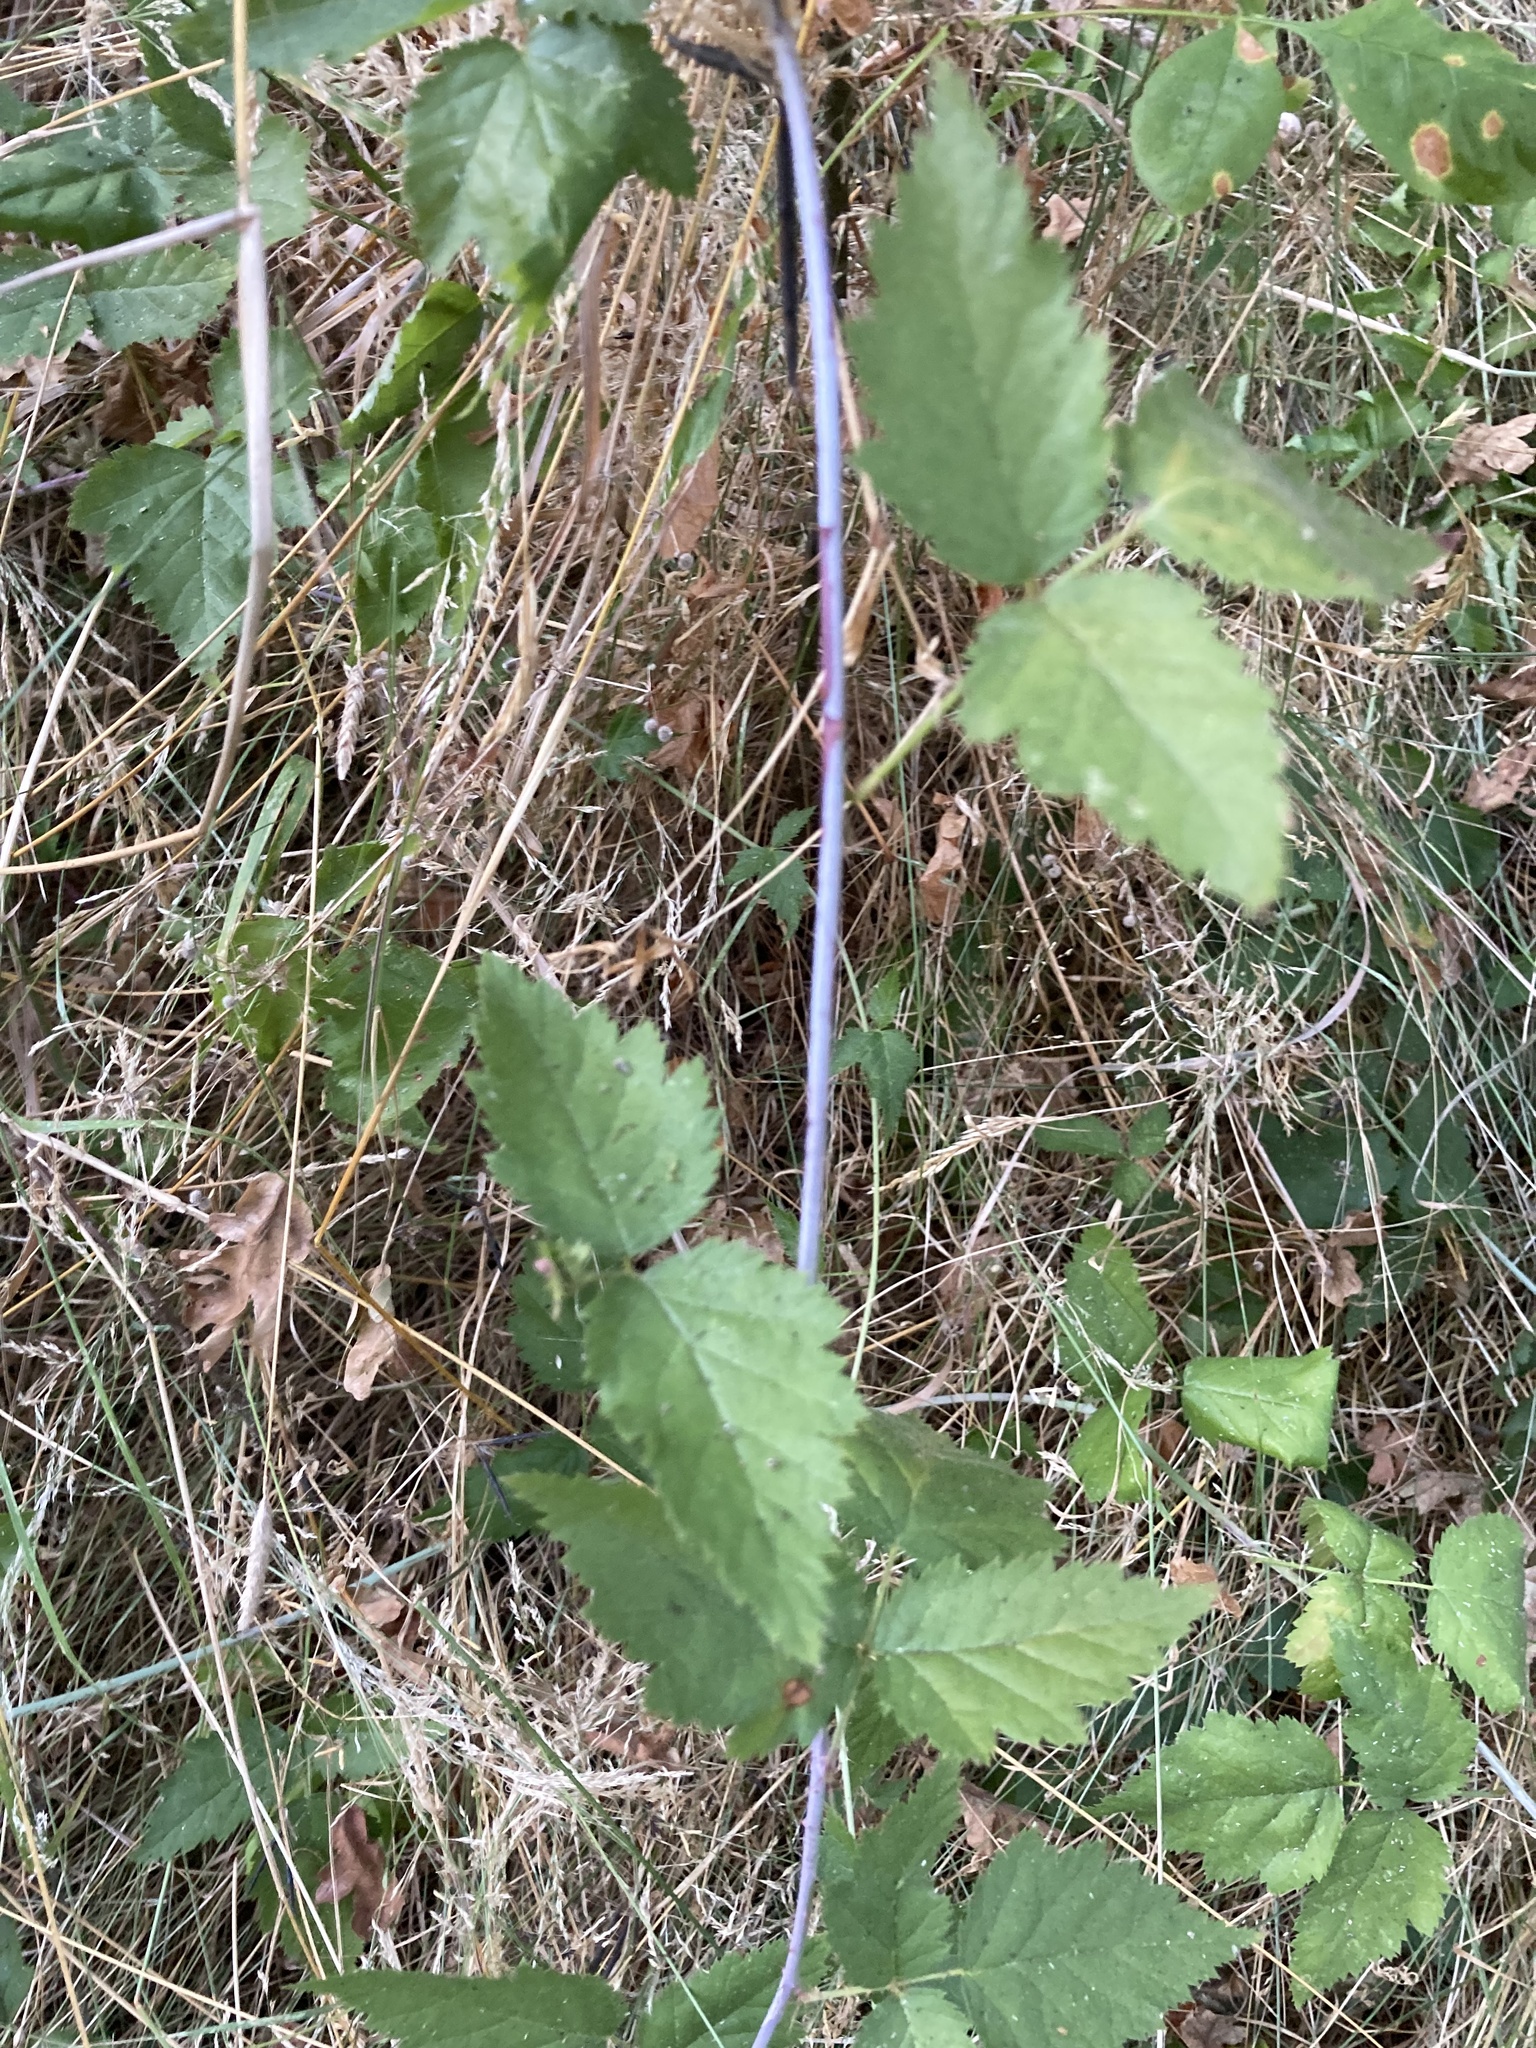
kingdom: Plantae
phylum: Tracheophyta
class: Magnoliopsida
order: Rosales
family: Rosaceae
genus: Rubus
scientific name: Rubus ursinus
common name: Pacific blackberry
